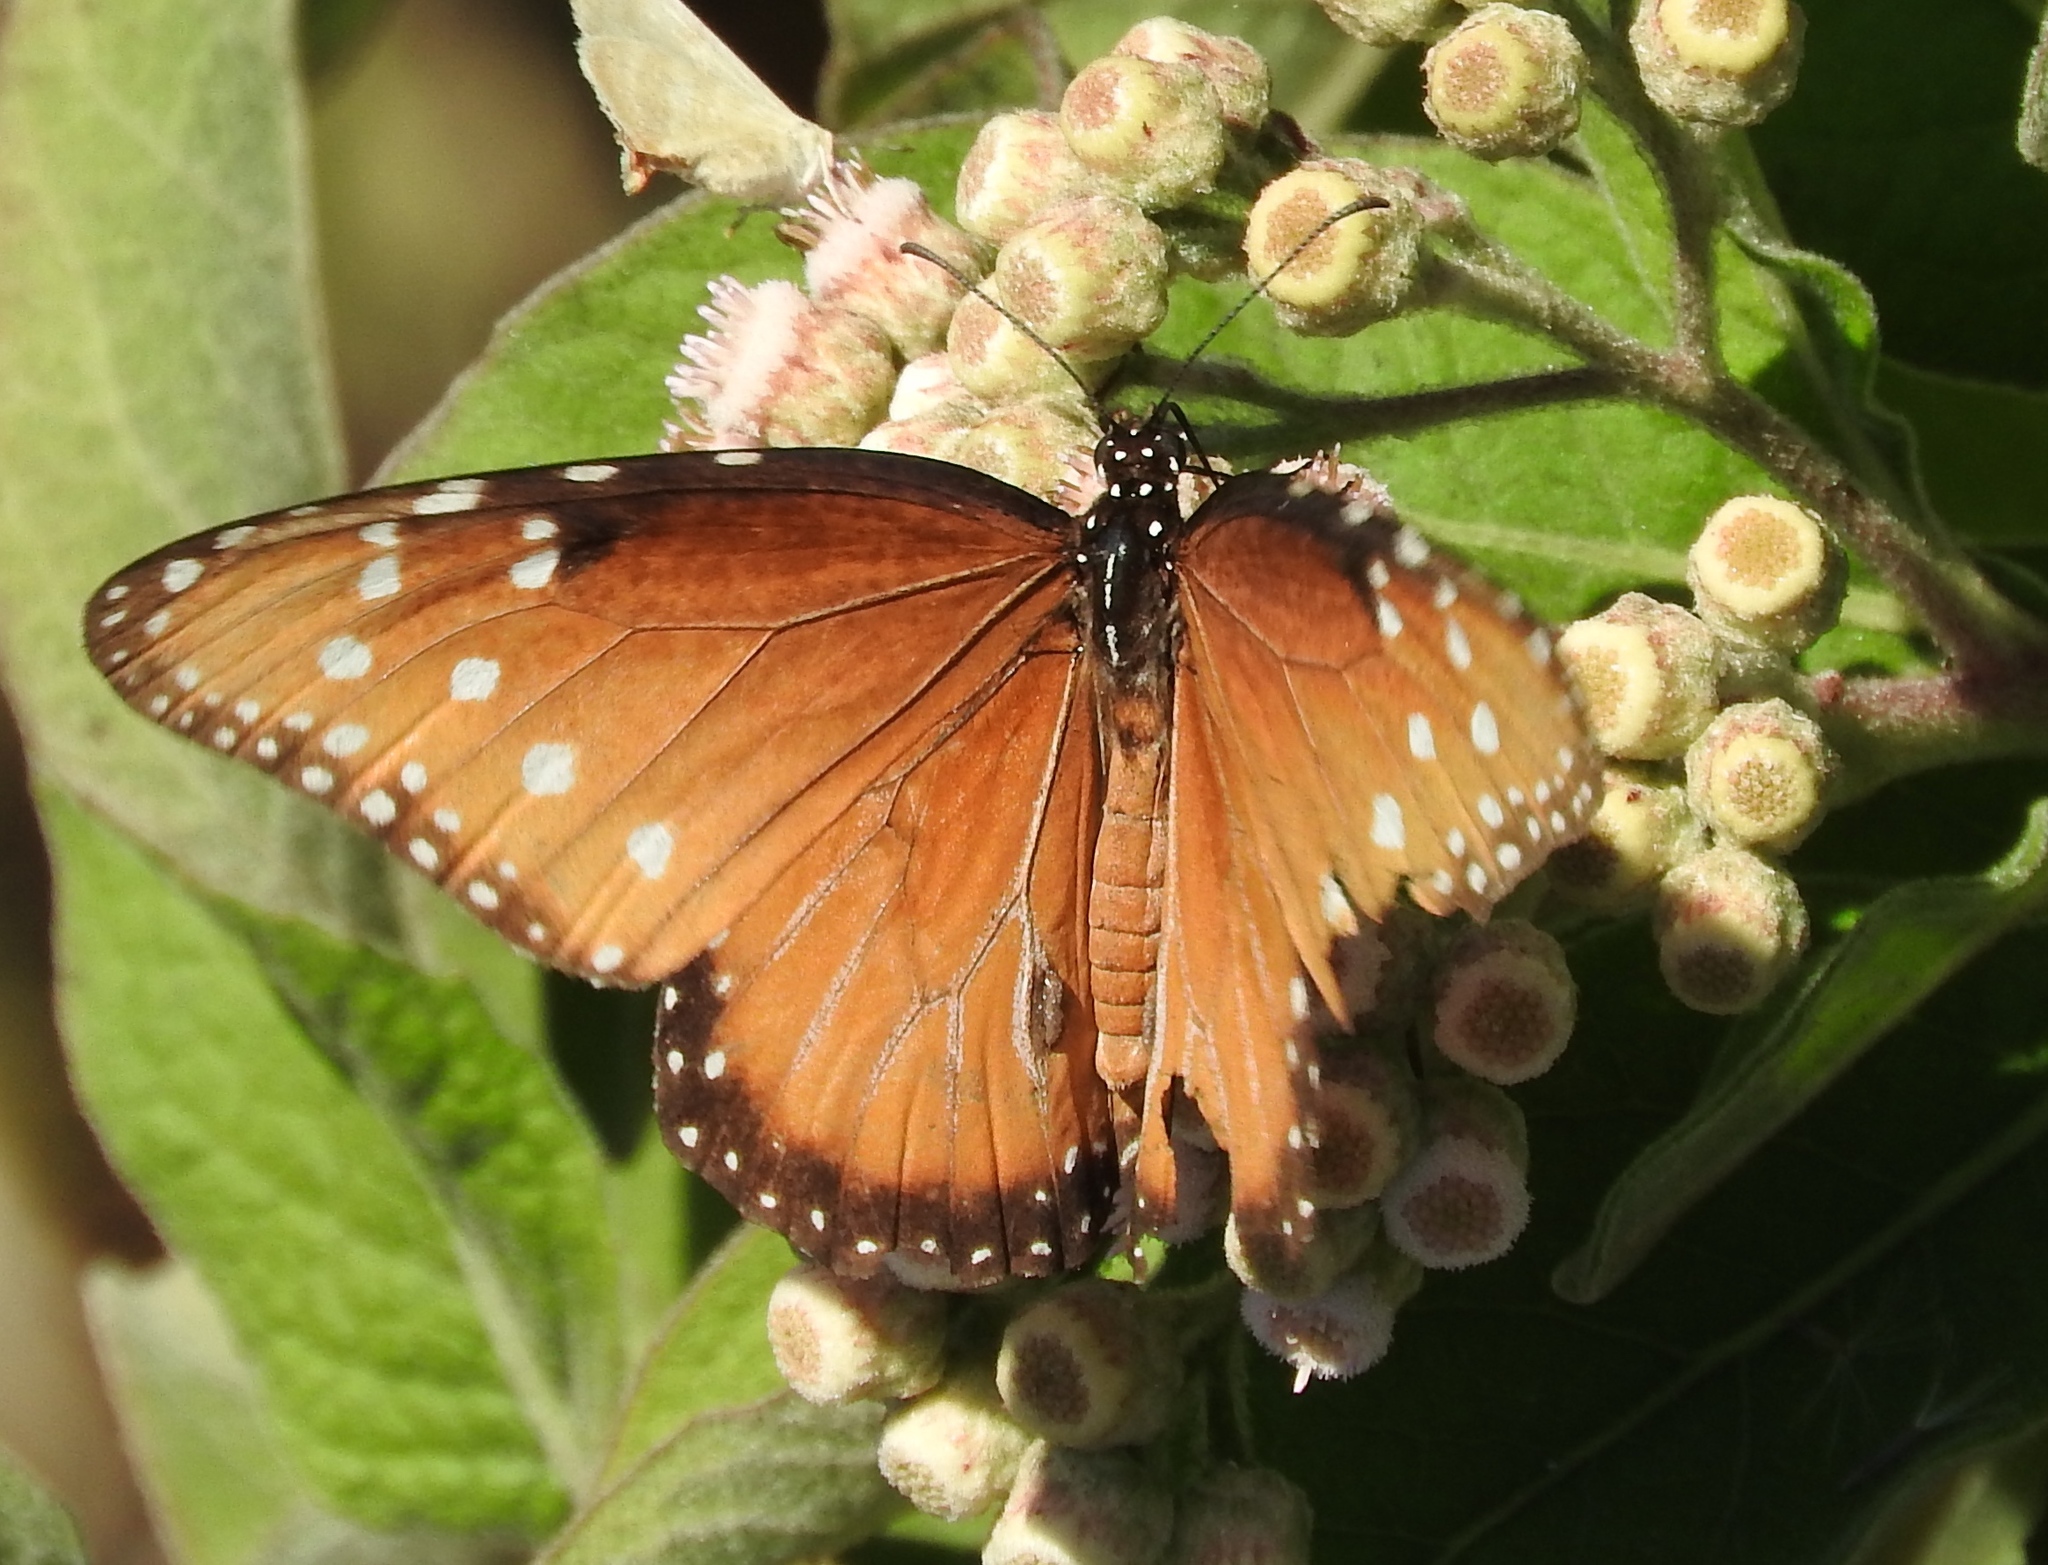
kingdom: Animalia
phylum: Arthropoda
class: Insecta
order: Lepidoptera
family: Nymphalidae
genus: Danaus
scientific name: Danaus gilippus
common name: Queen
